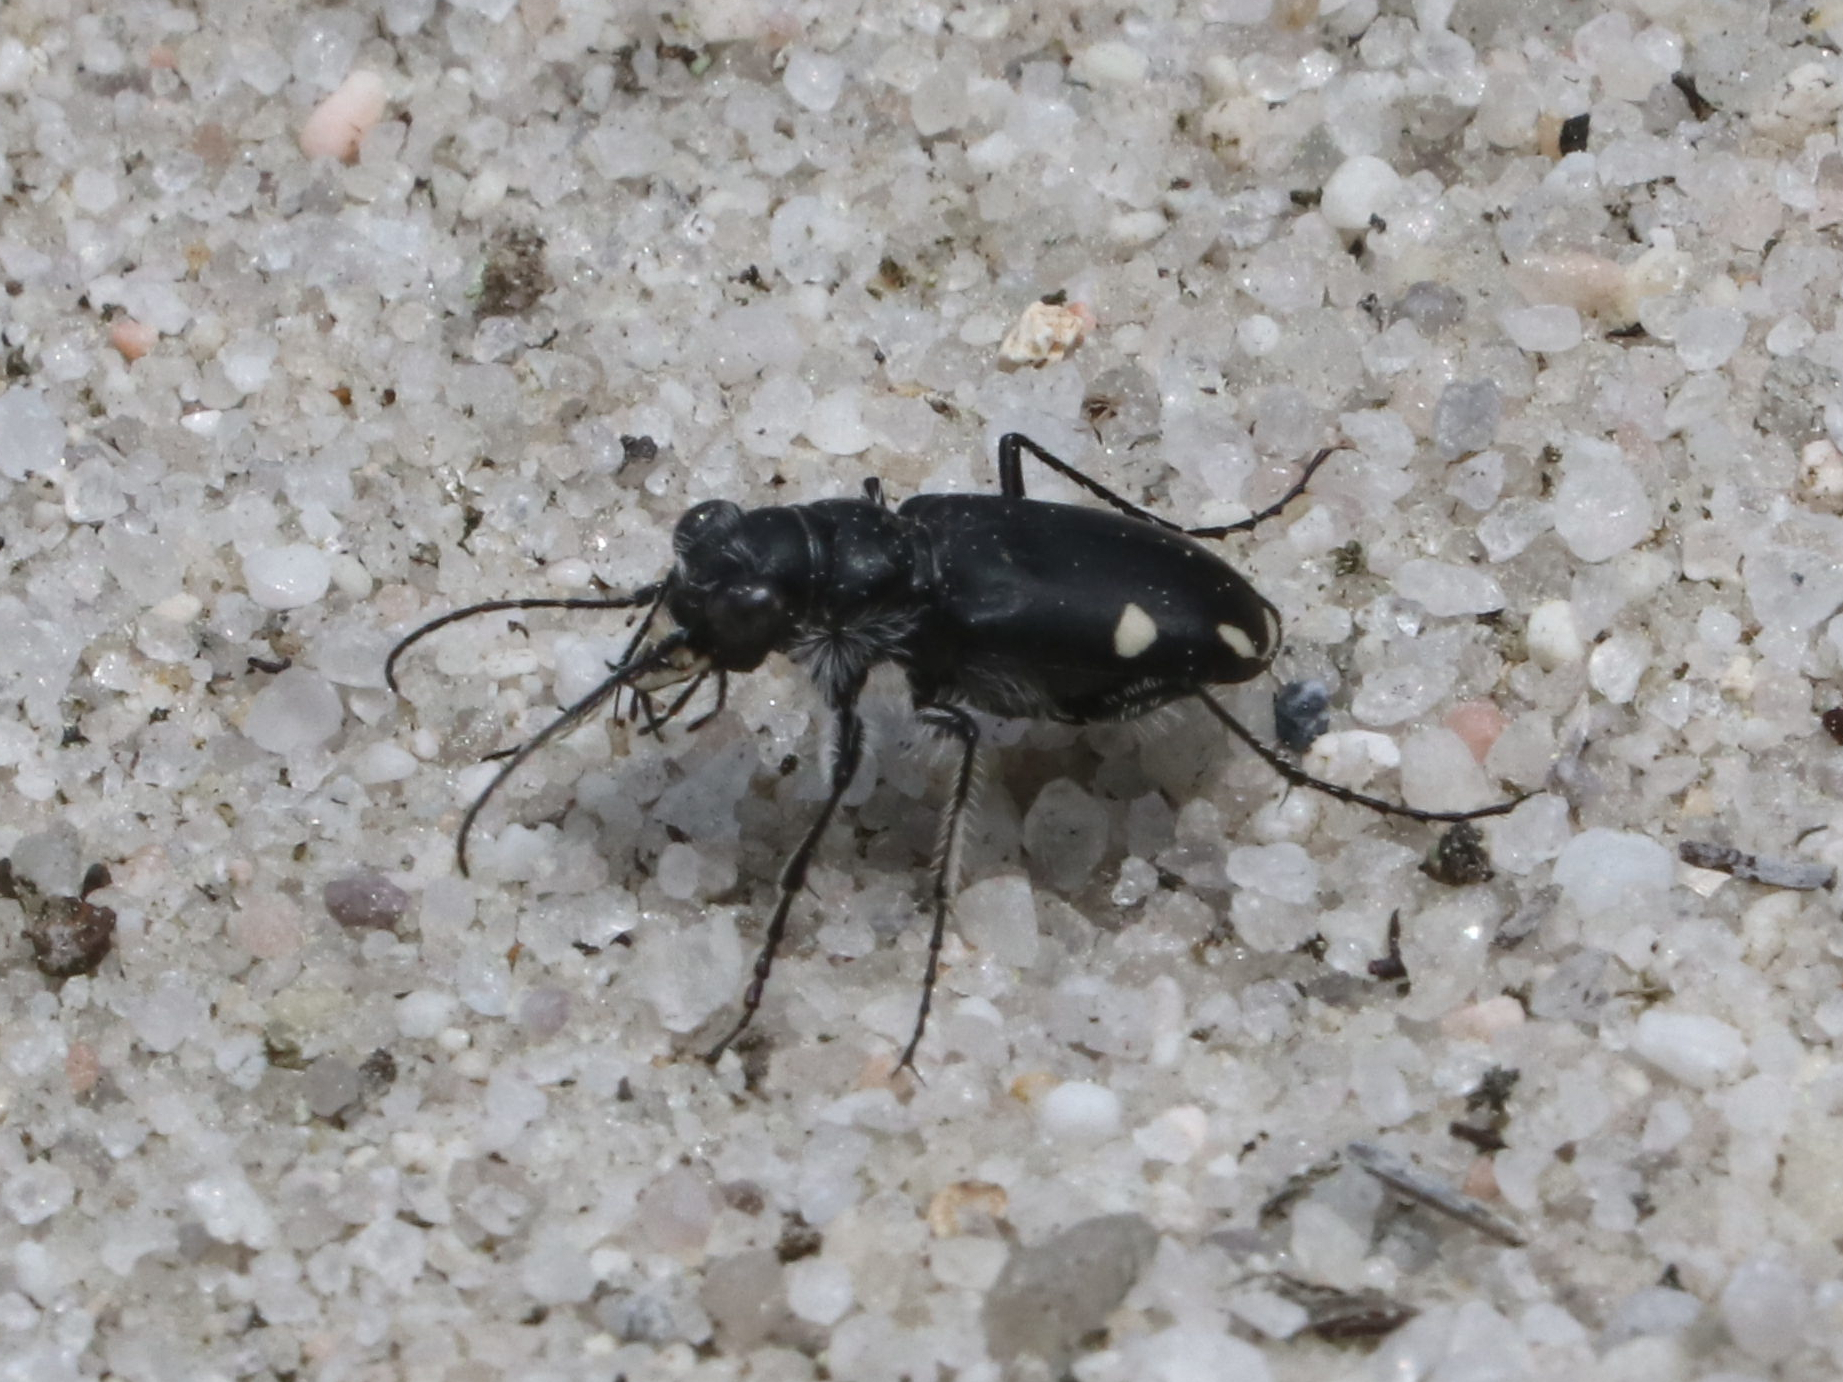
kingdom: Animalia
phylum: Arthropoda
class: Insecta
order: Coleoptera
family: Carabidae
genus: Cicindela
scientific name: Cicindela scutellaris
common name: Festive tiger beetle
